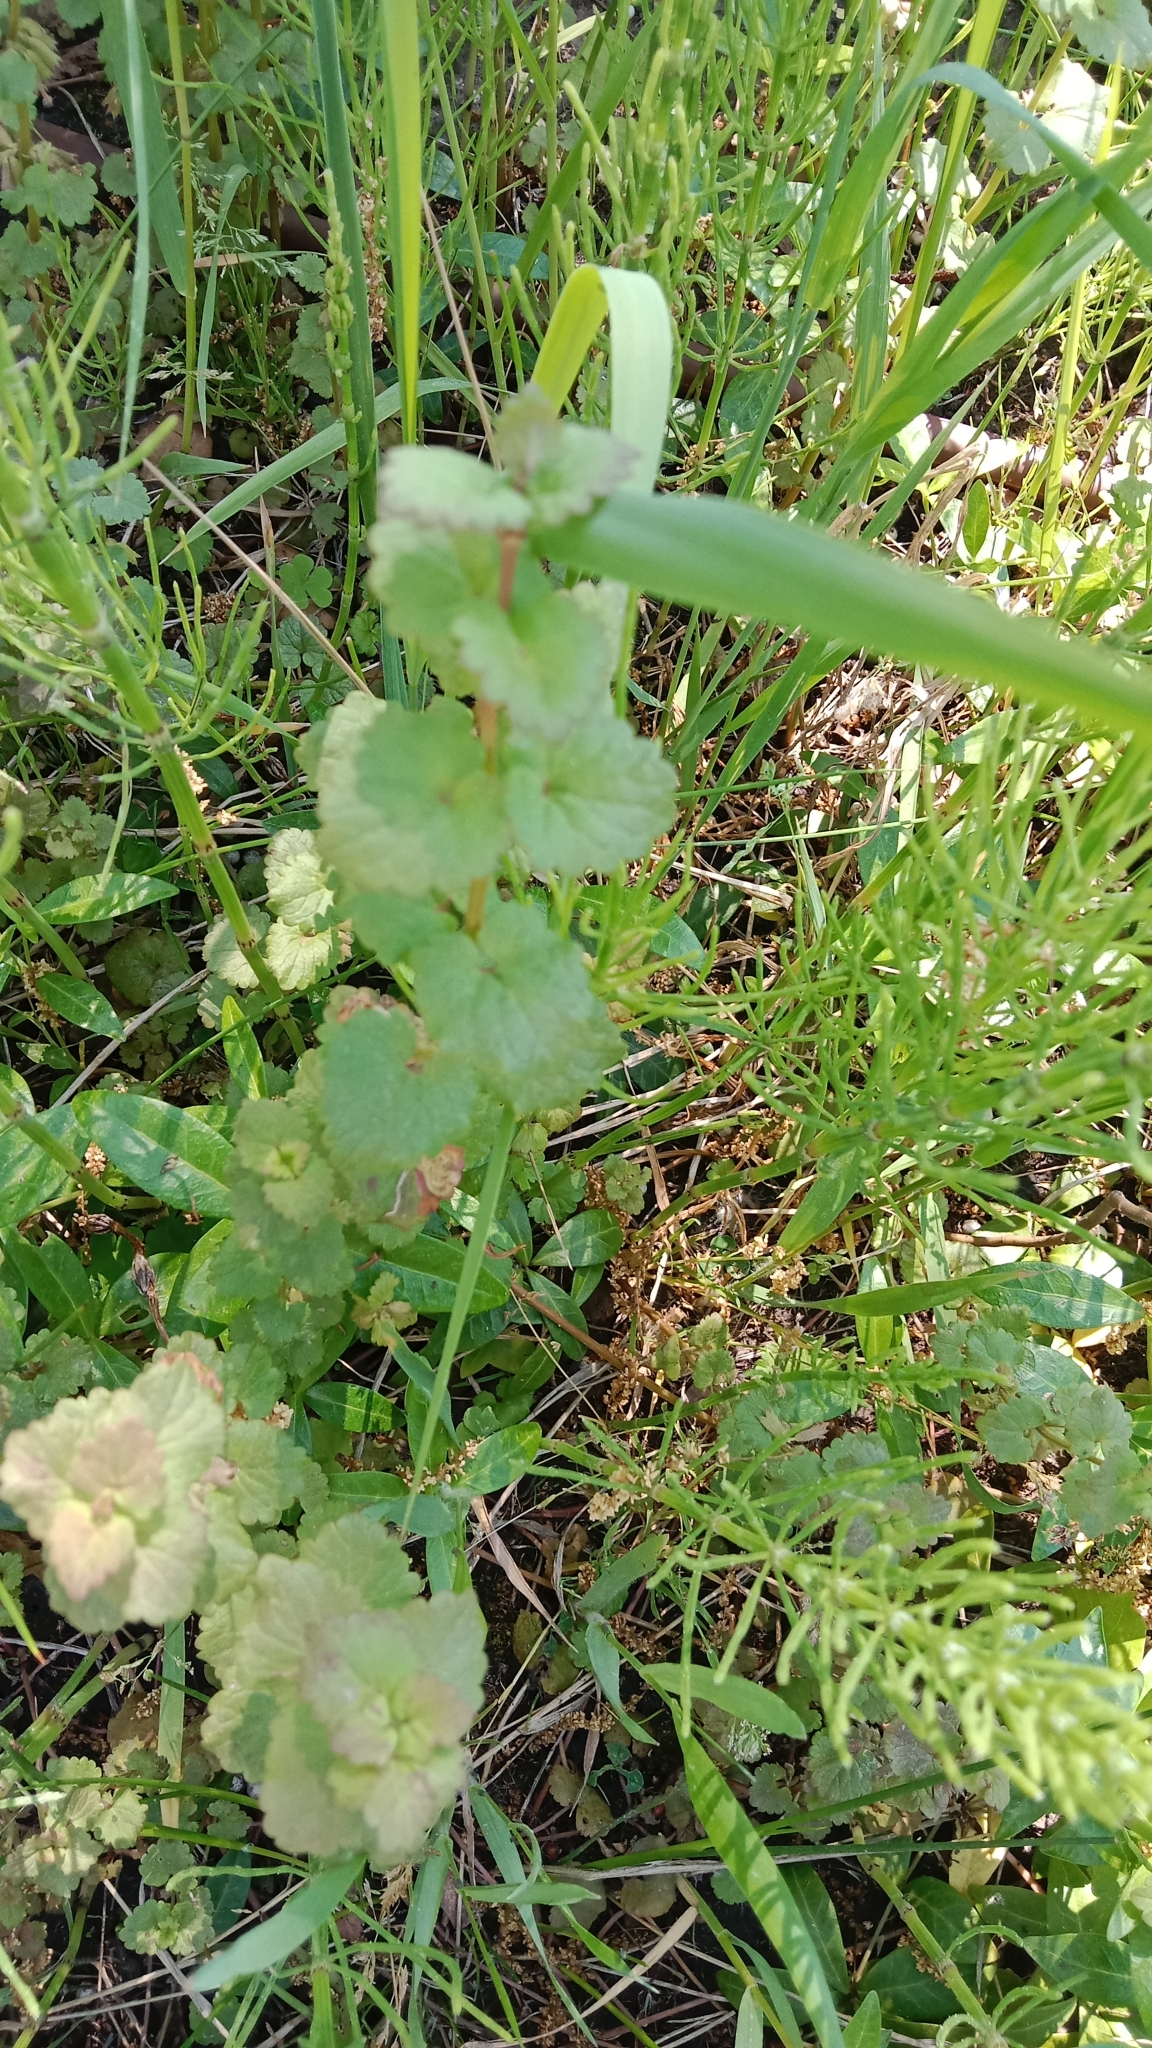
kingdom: Plantae
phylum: Tracheophyta
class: Magnoliopsida
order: Lamiales
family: Lamiaceae
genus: Glechoma
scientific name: Glechoma hederacea
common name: Ground ivy
